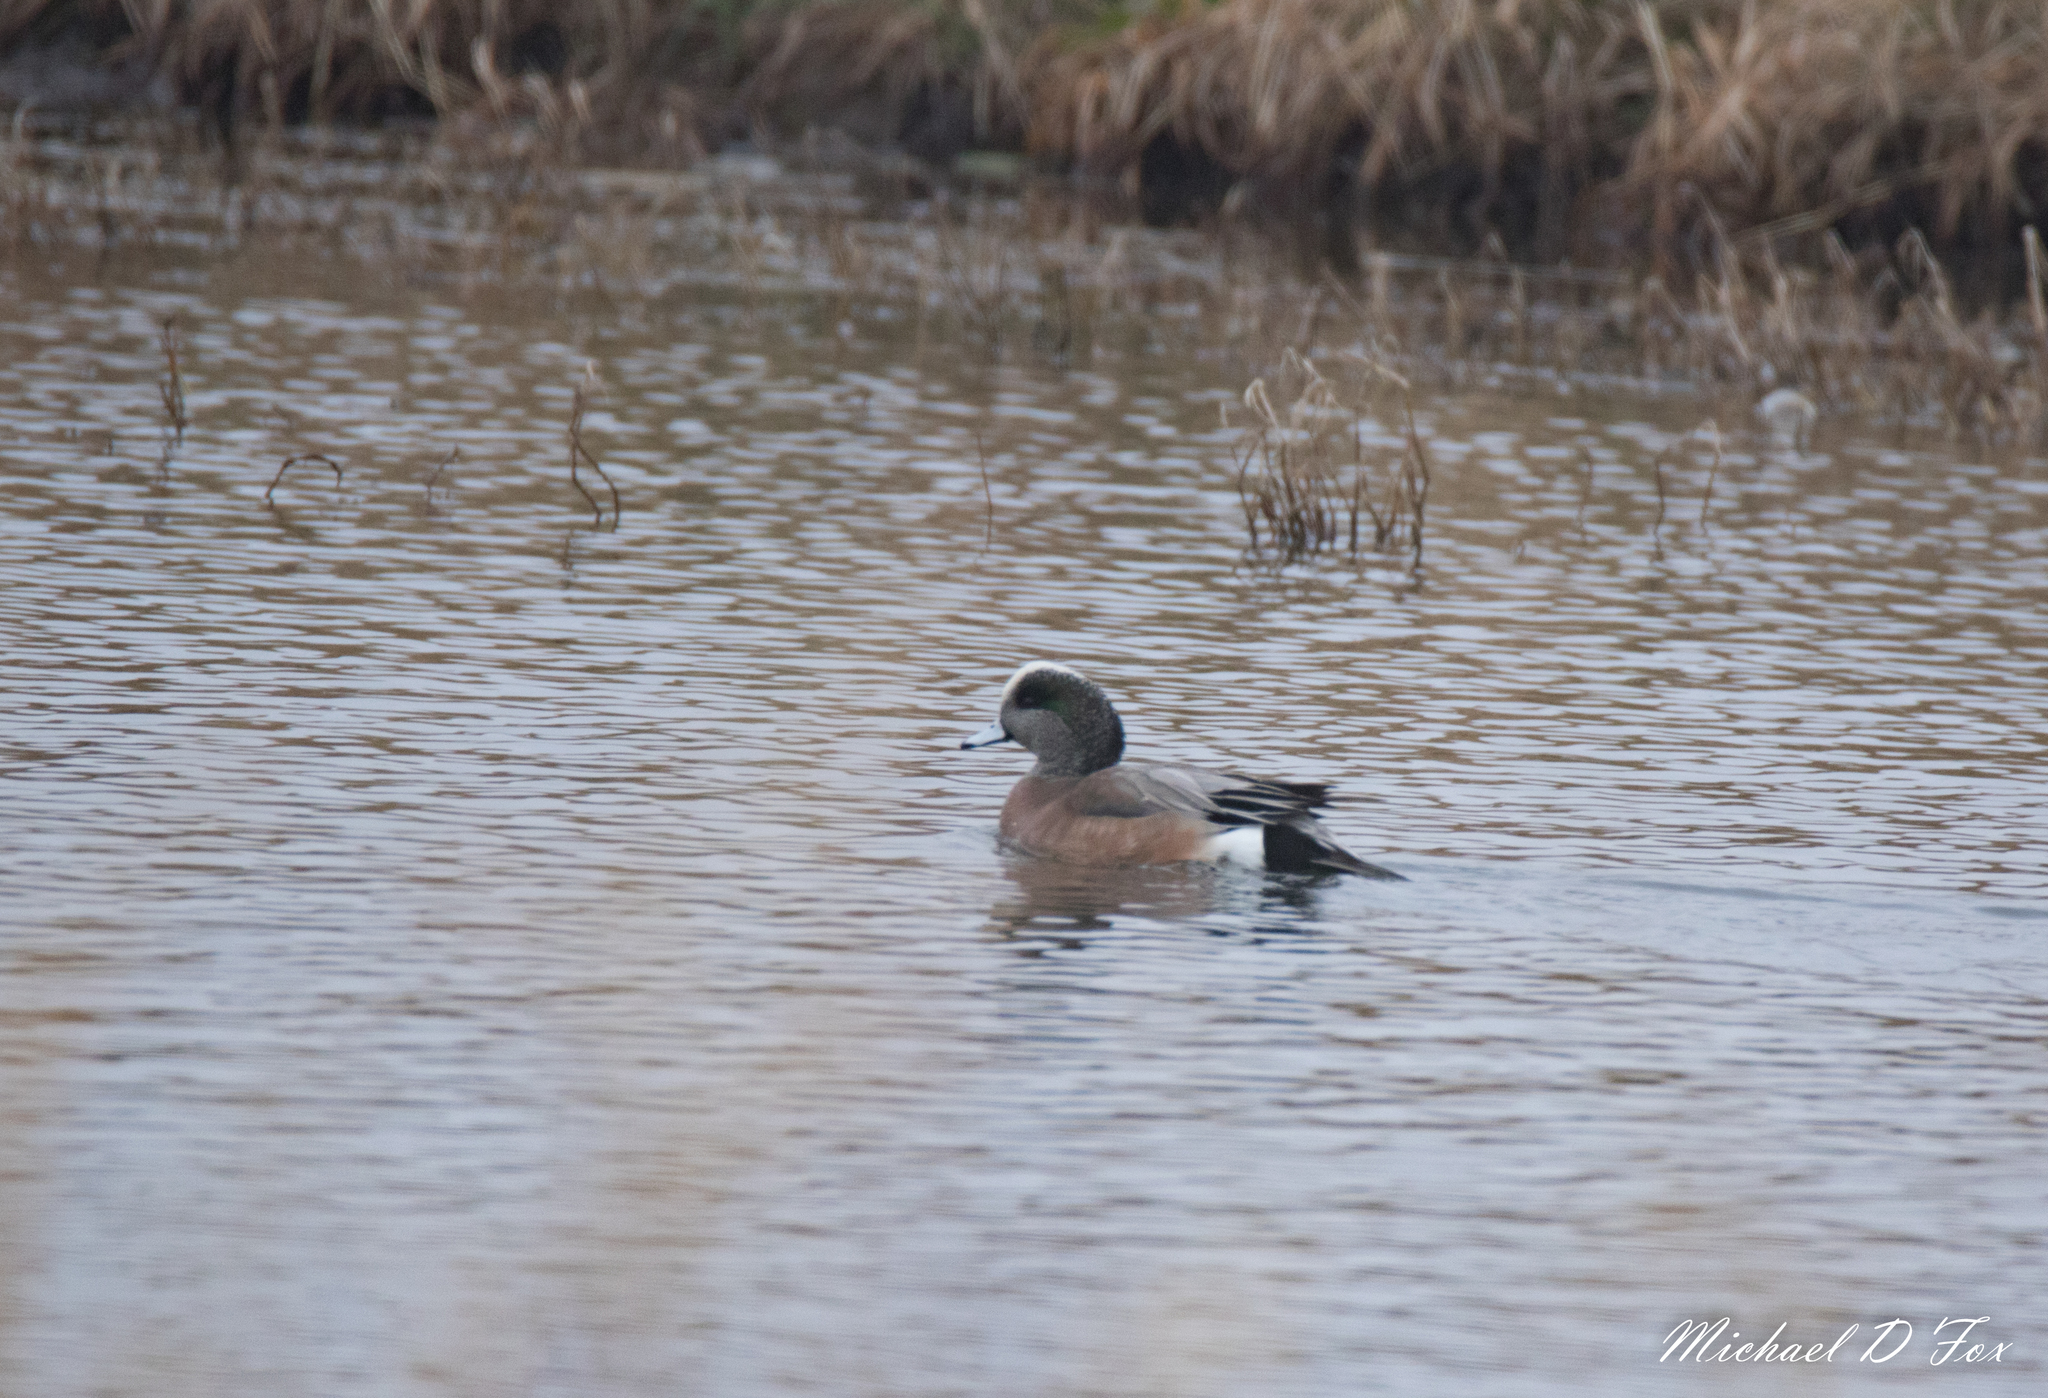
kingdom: Animalia
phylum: Chordata
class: Aves
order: Anseriformes
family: Anatidae
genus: Mareca
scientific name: Mareca americana
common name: American wigeon
